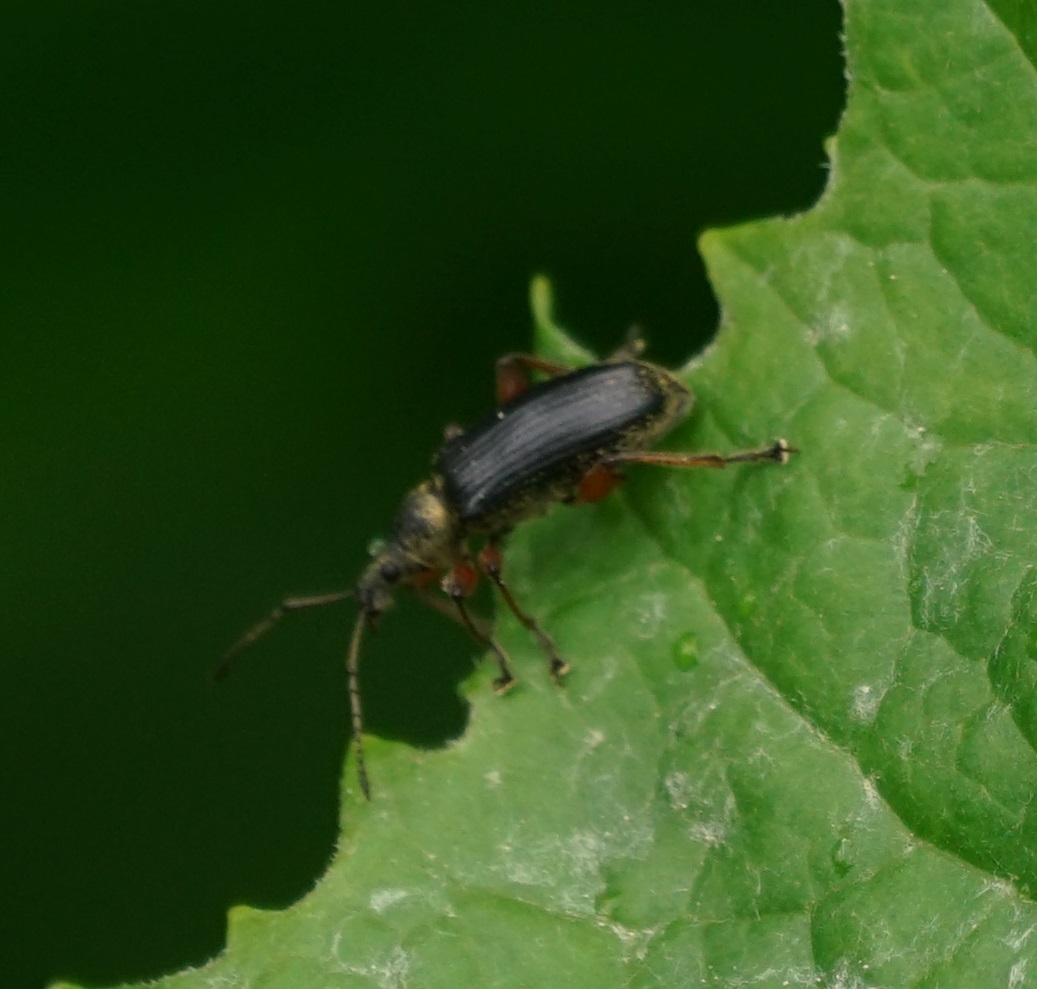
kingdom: Animalia
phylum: Arthropoda
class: Insecta
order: Coleoptera
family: Curculionidae
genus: Phyllobius
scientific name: Phyllobius glaucus
